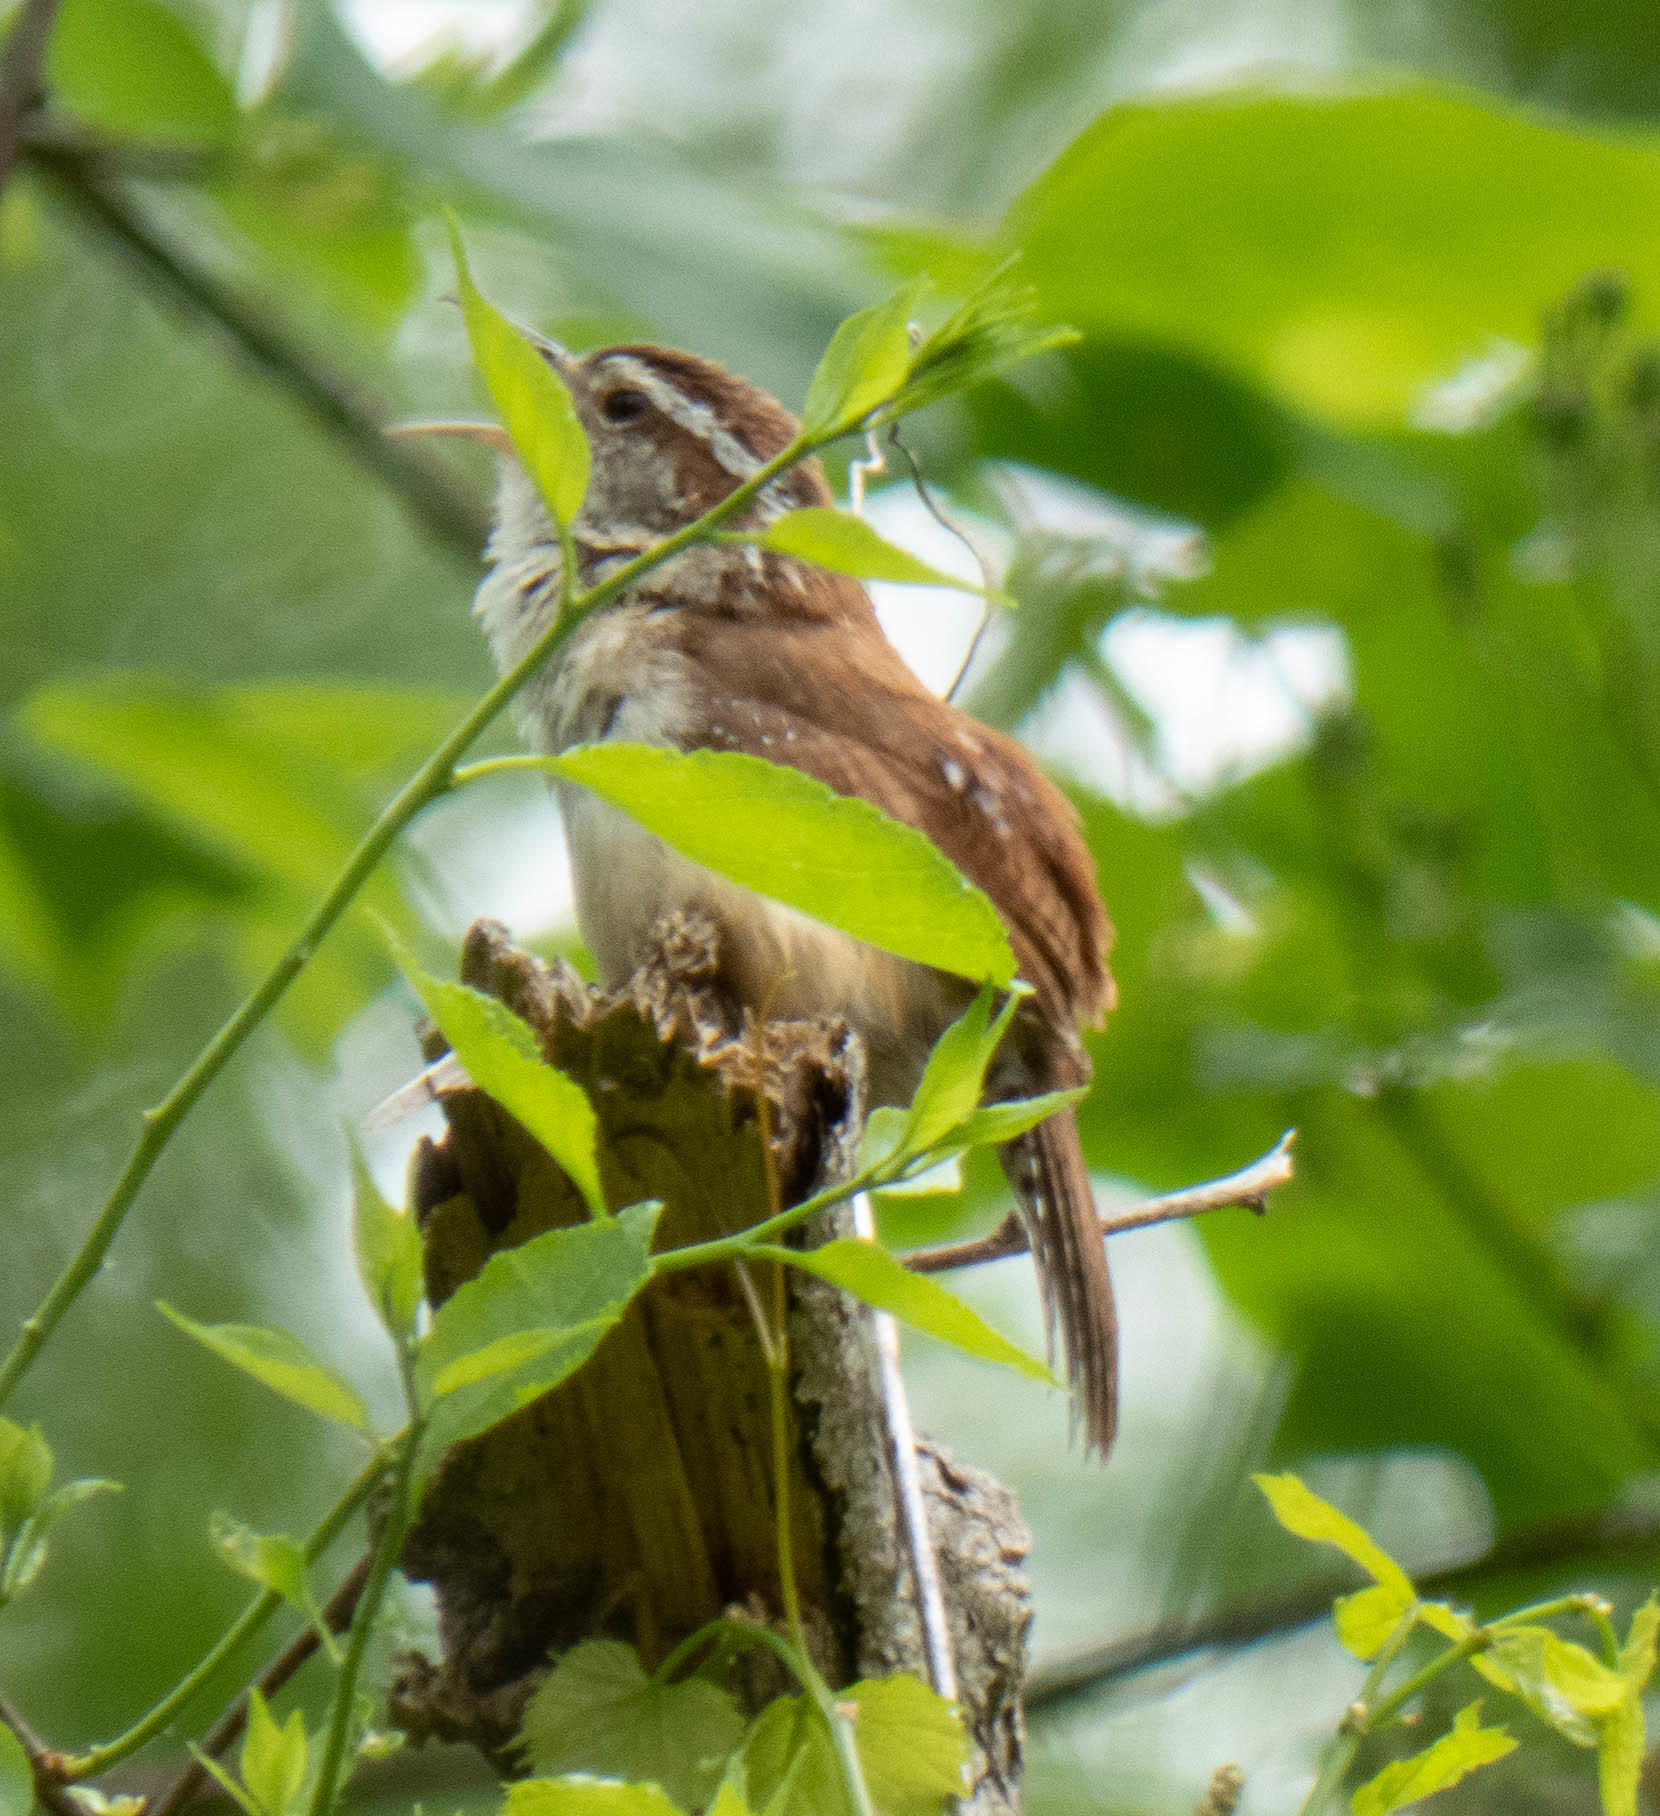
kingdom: Animalia
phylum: Chordata
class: Aves
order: Passeriformes
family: Troglodytidae
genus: Thryothorus
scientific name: Thryothorus ludovicianus
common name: Carolina wren
